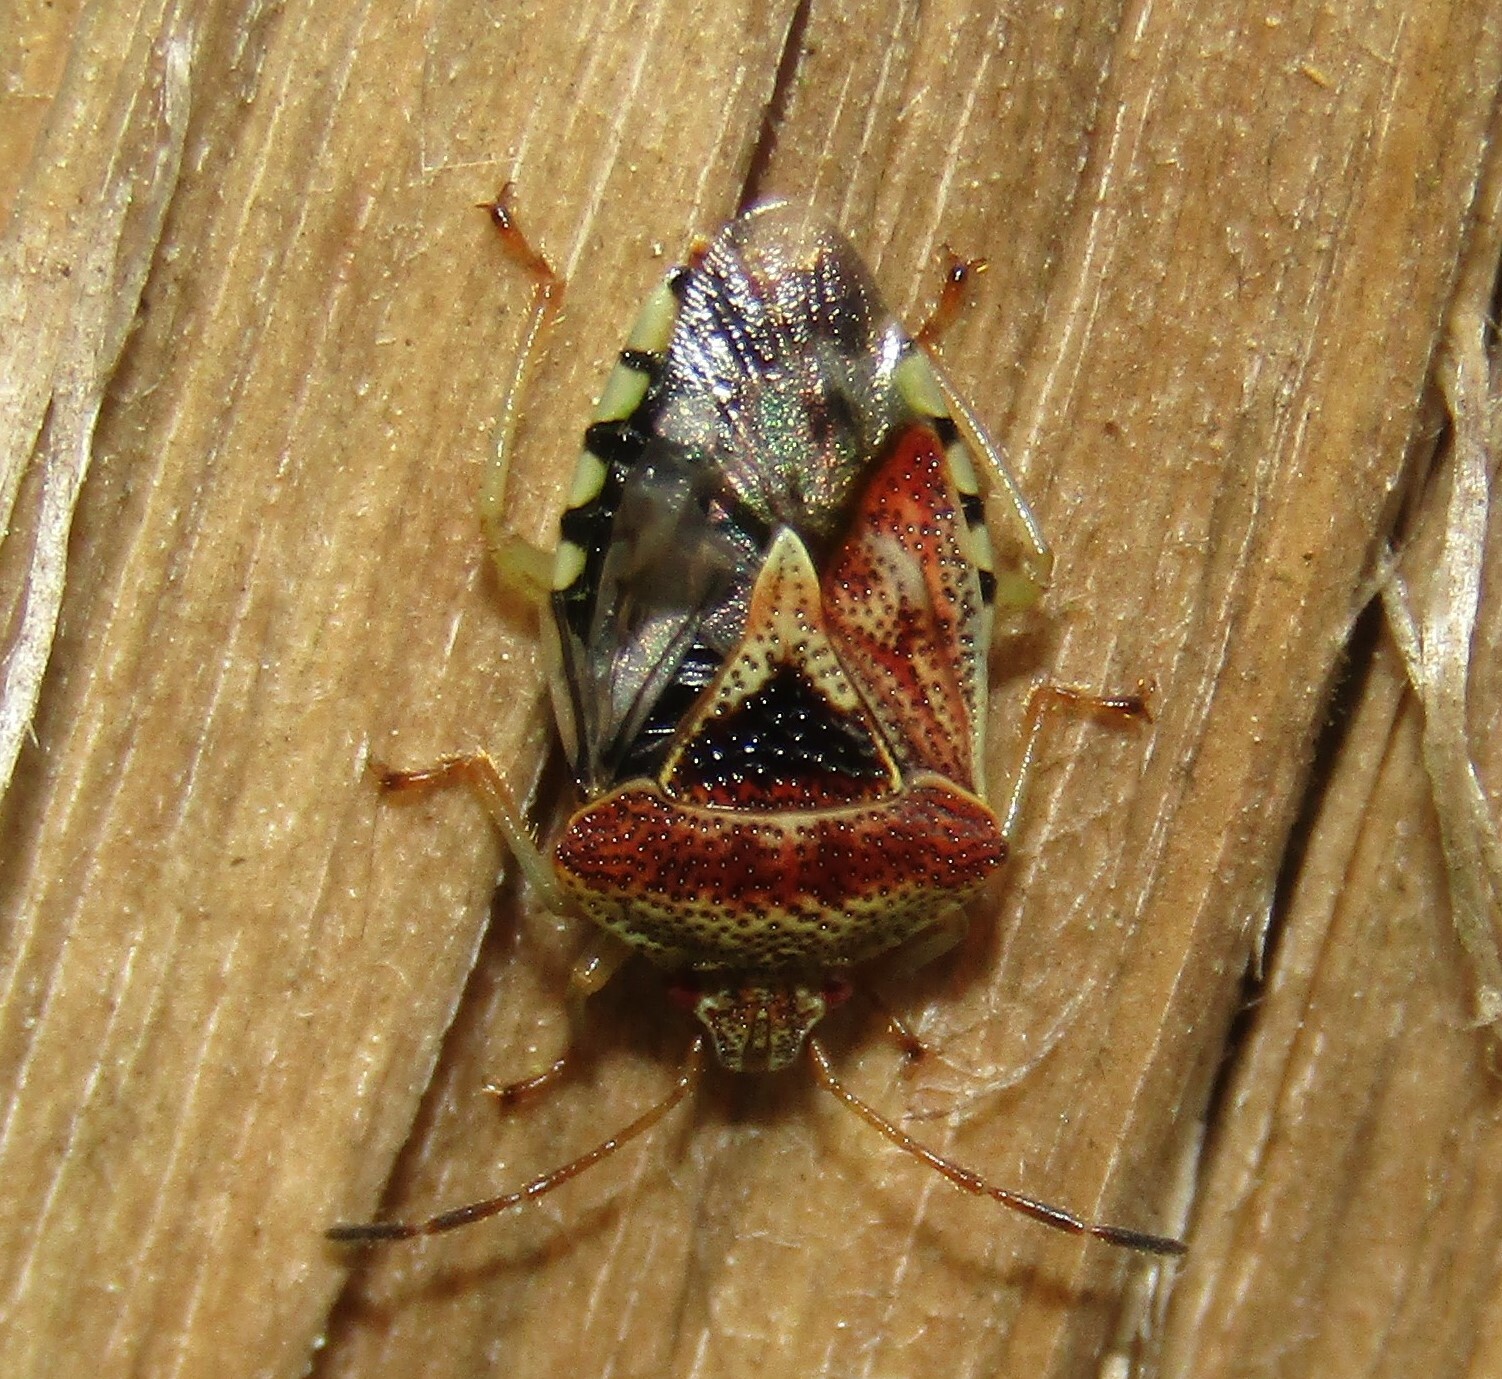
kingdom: Animalia
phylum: Arthropoda
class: Insecta
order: Hemiptera
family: Acanthosomatidae
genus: Elasmucha
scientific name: Elasmucha grisea
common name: Parent bug
